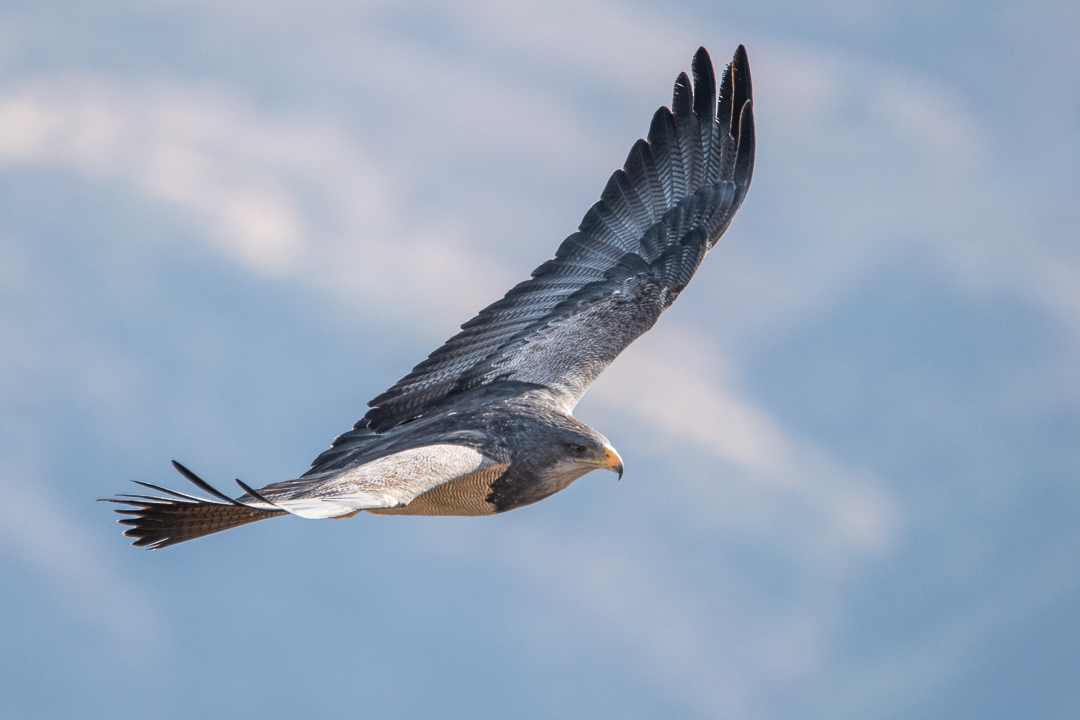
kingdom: Animalia
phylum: Chordata
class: Aves
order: Accipitriformes
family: Accipitridae
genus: Geranoaetus
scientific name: Geranoaetus melanoleucus
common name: Black-chested buzzard-eagle
